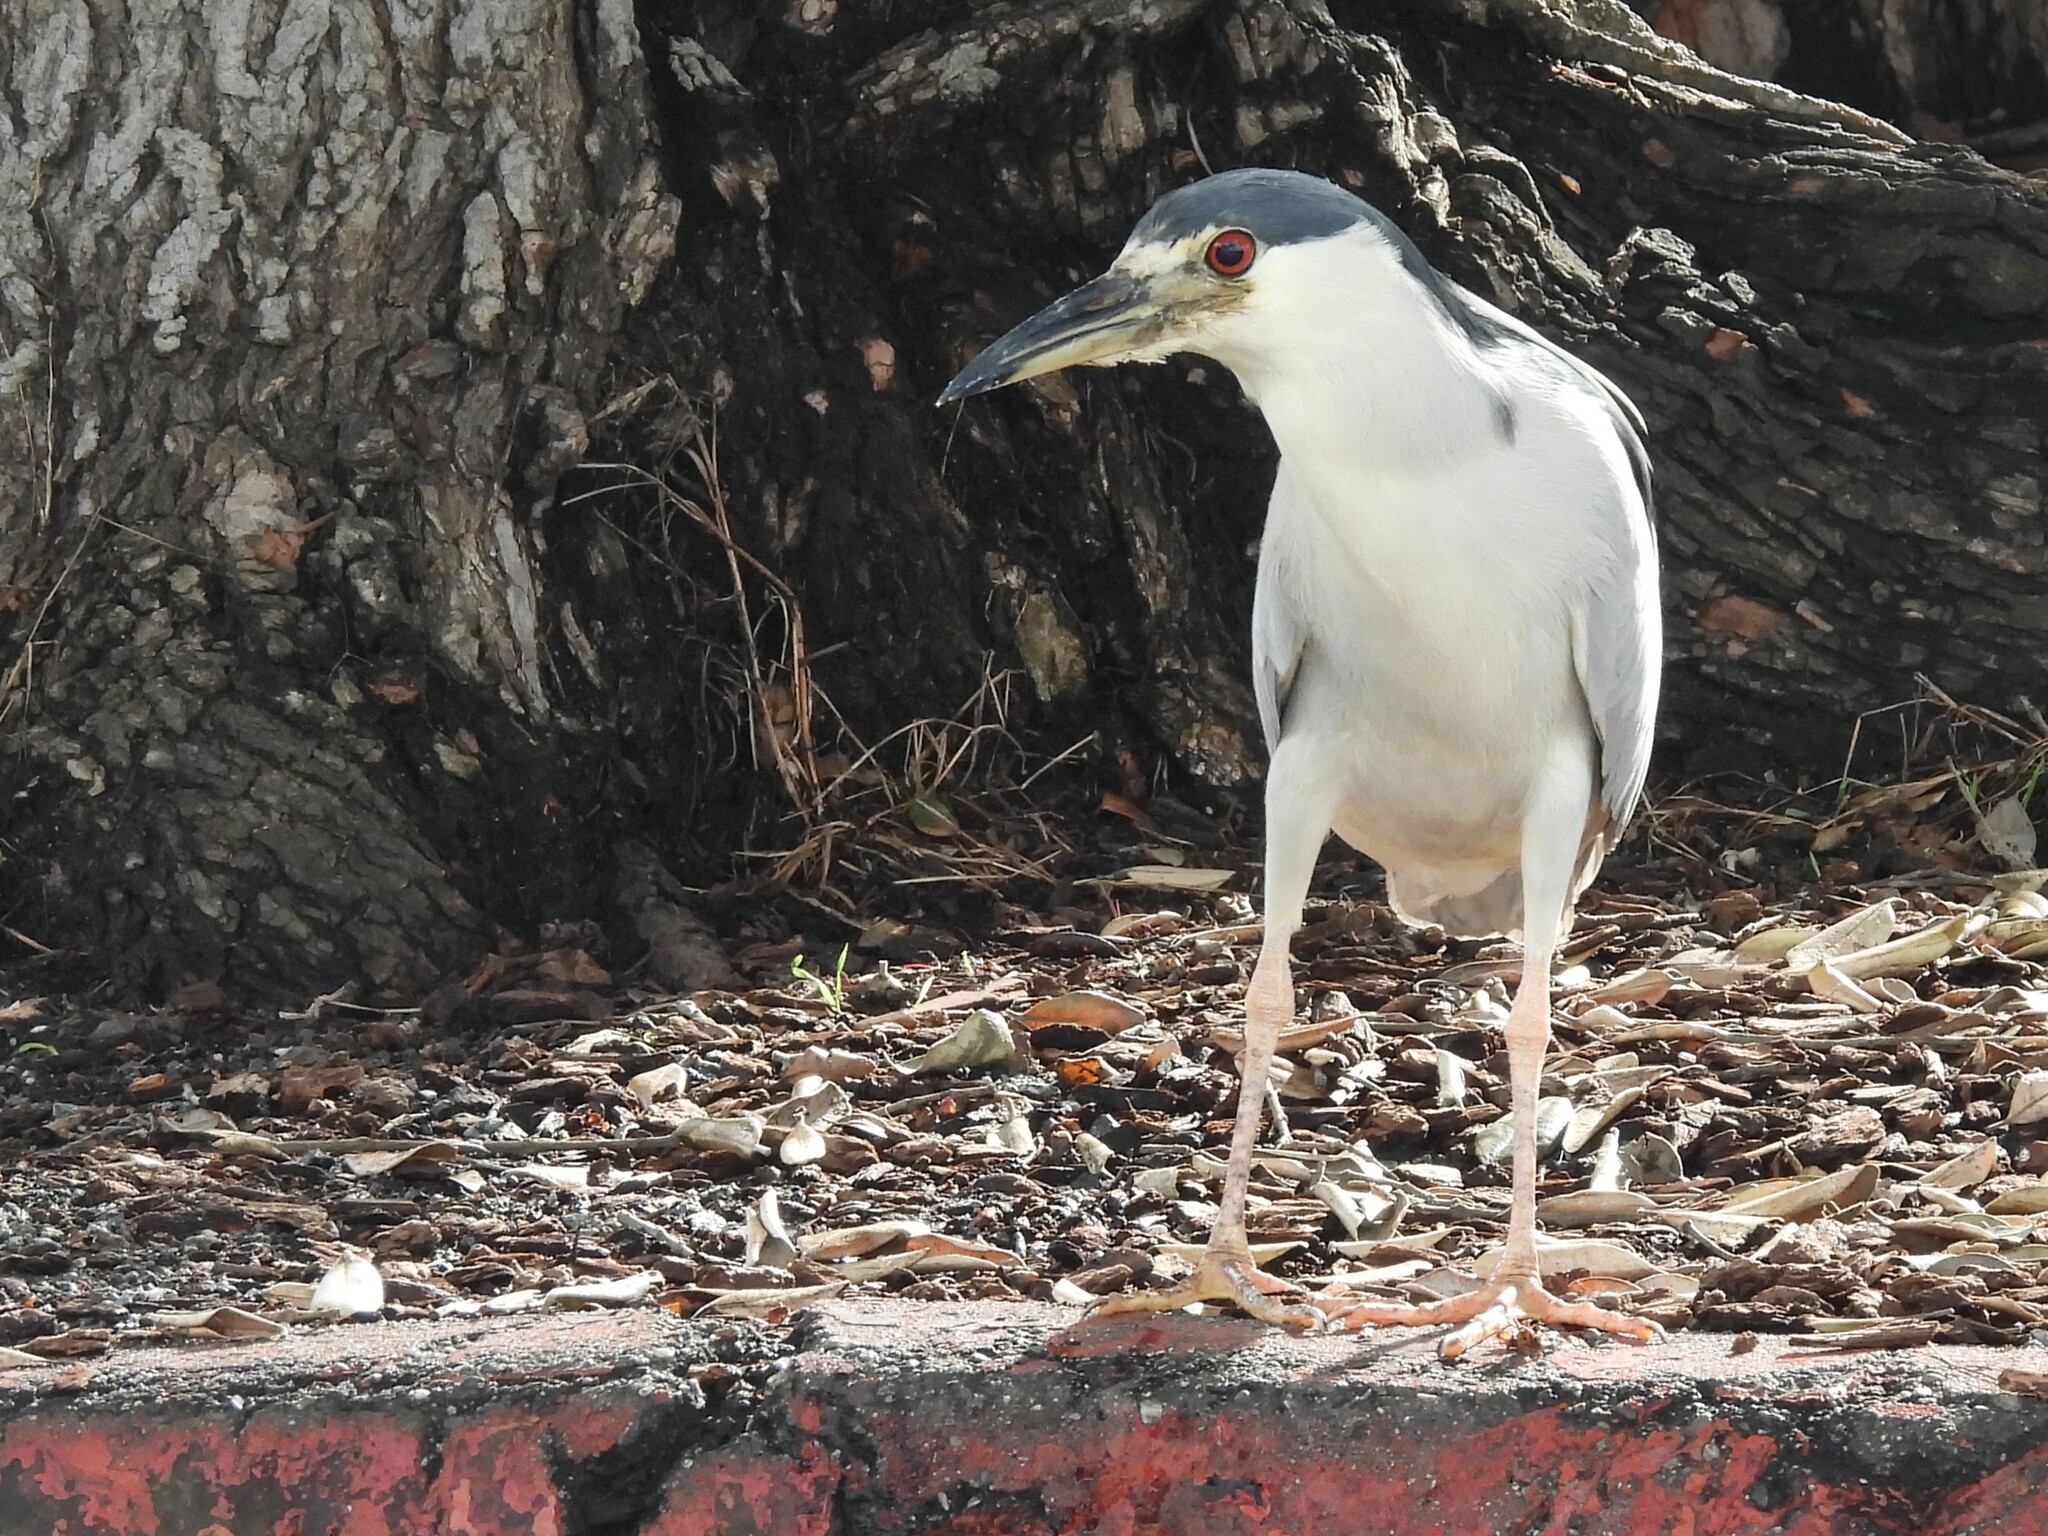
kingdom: Animalia
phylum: Chordata
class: Aves
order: Pelecaniformes
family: Ardeidae
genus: Nycticorax
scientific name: Nycticorax nycticorax
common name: Black-crowned night heron
